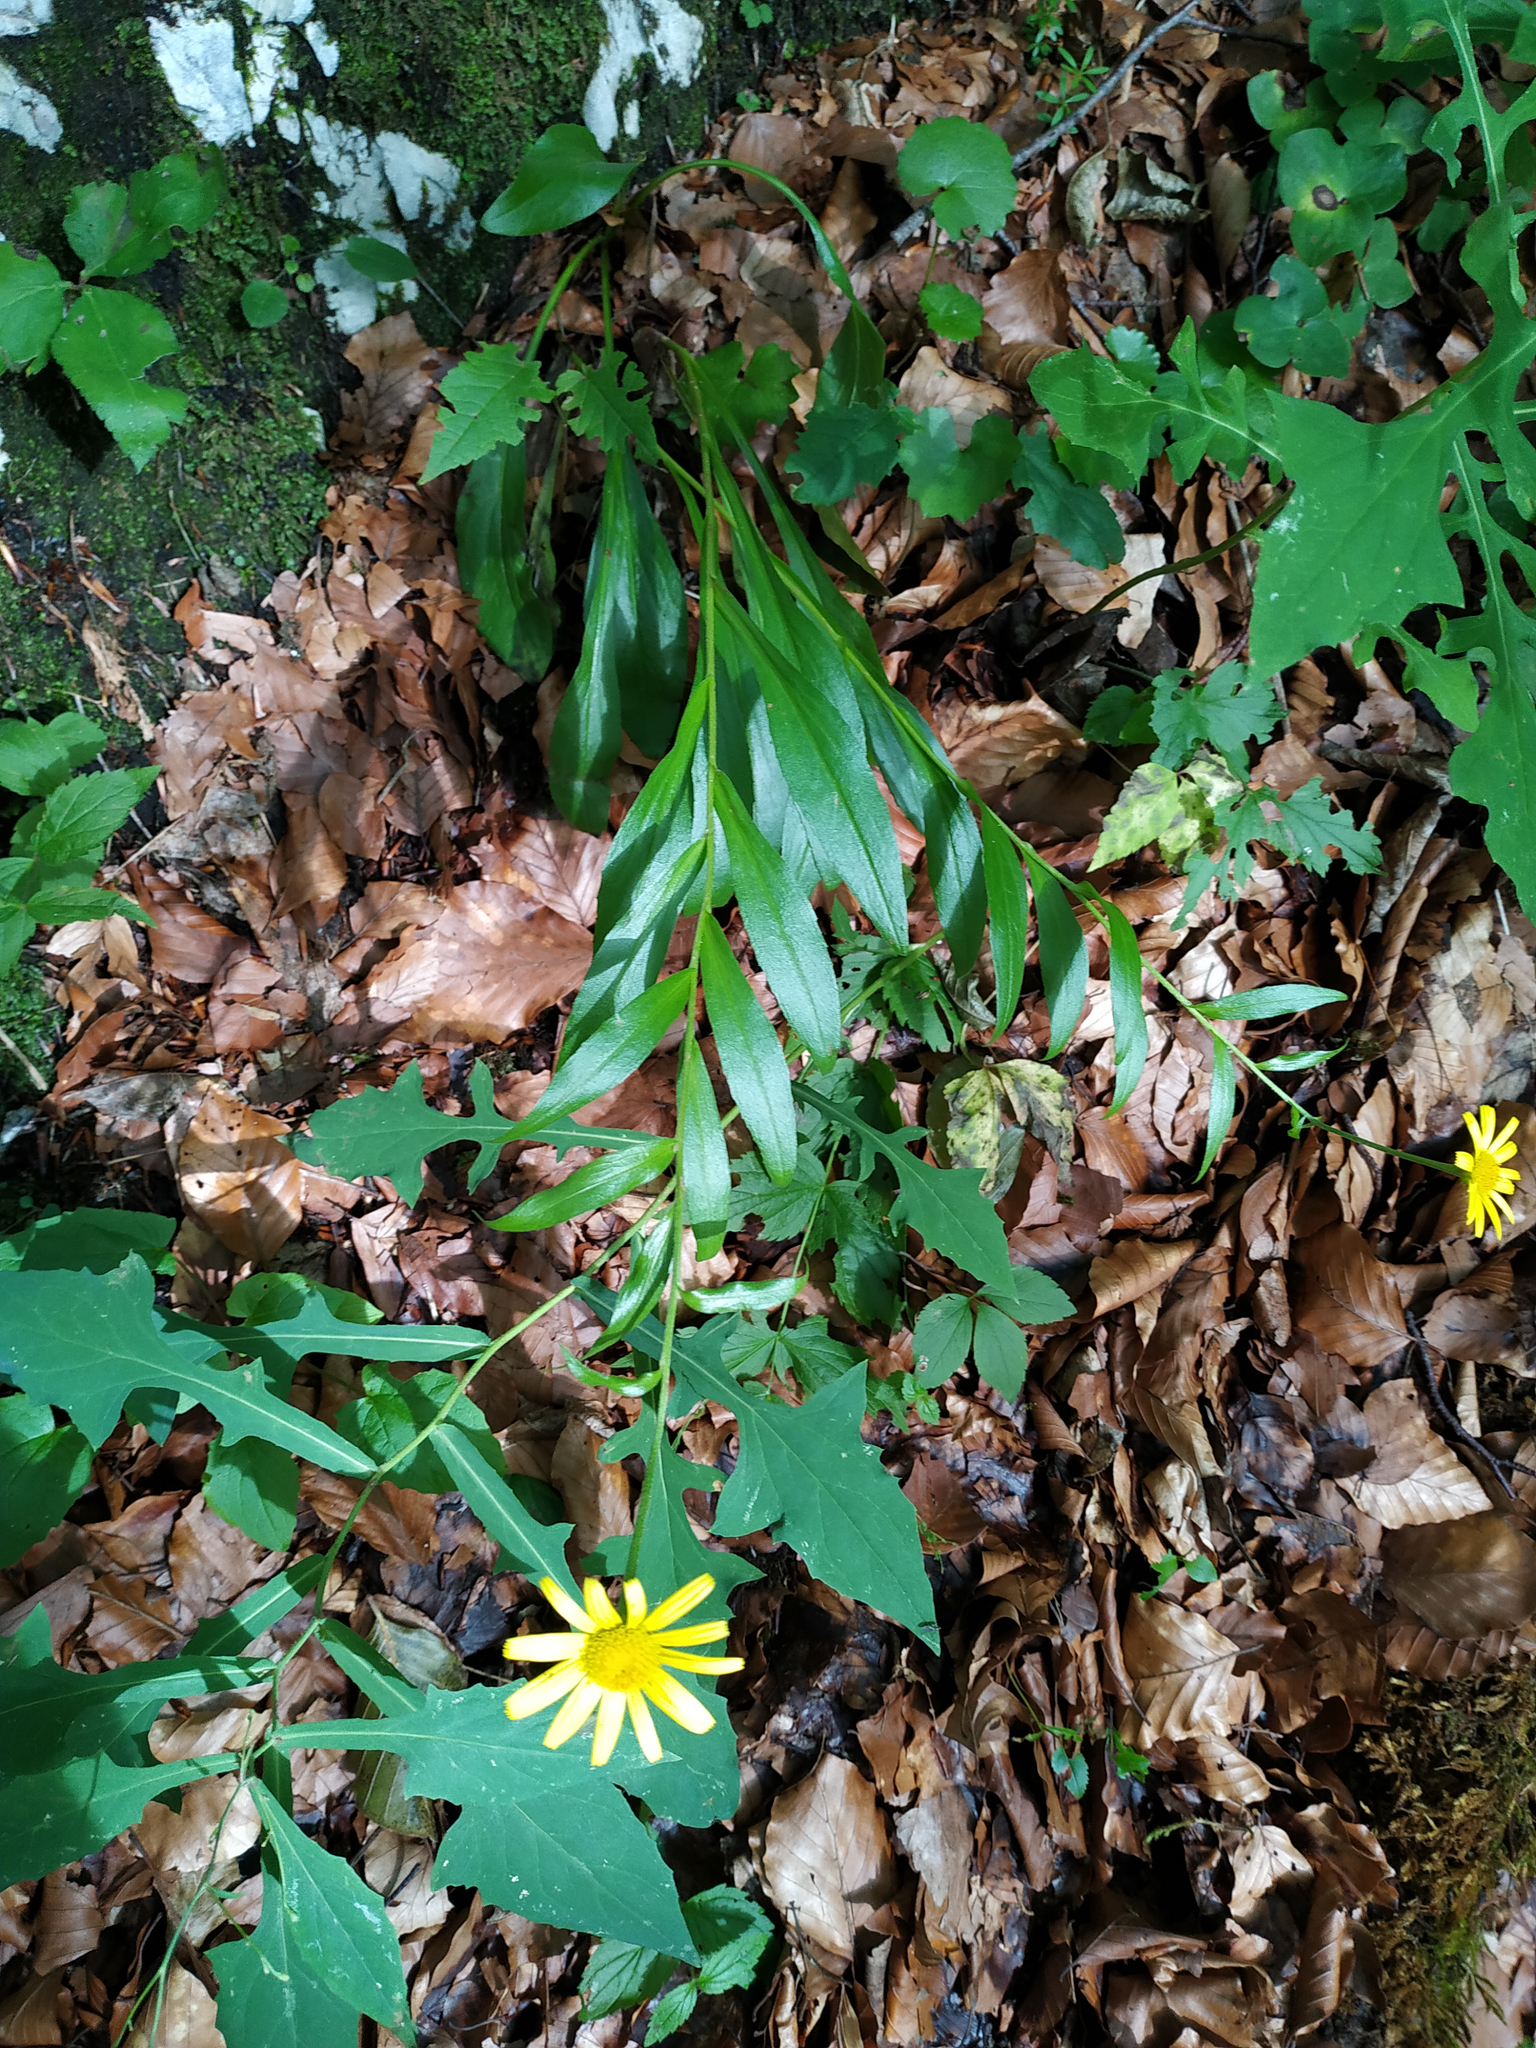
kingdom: Plantae
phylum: Tracheophyta
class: Magnoliopsida
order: Asterales
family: Asteraceae
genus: Buphthalmum
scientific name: Buphthalmum salicifolium
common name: Willow-leaved yellow-oxeye
